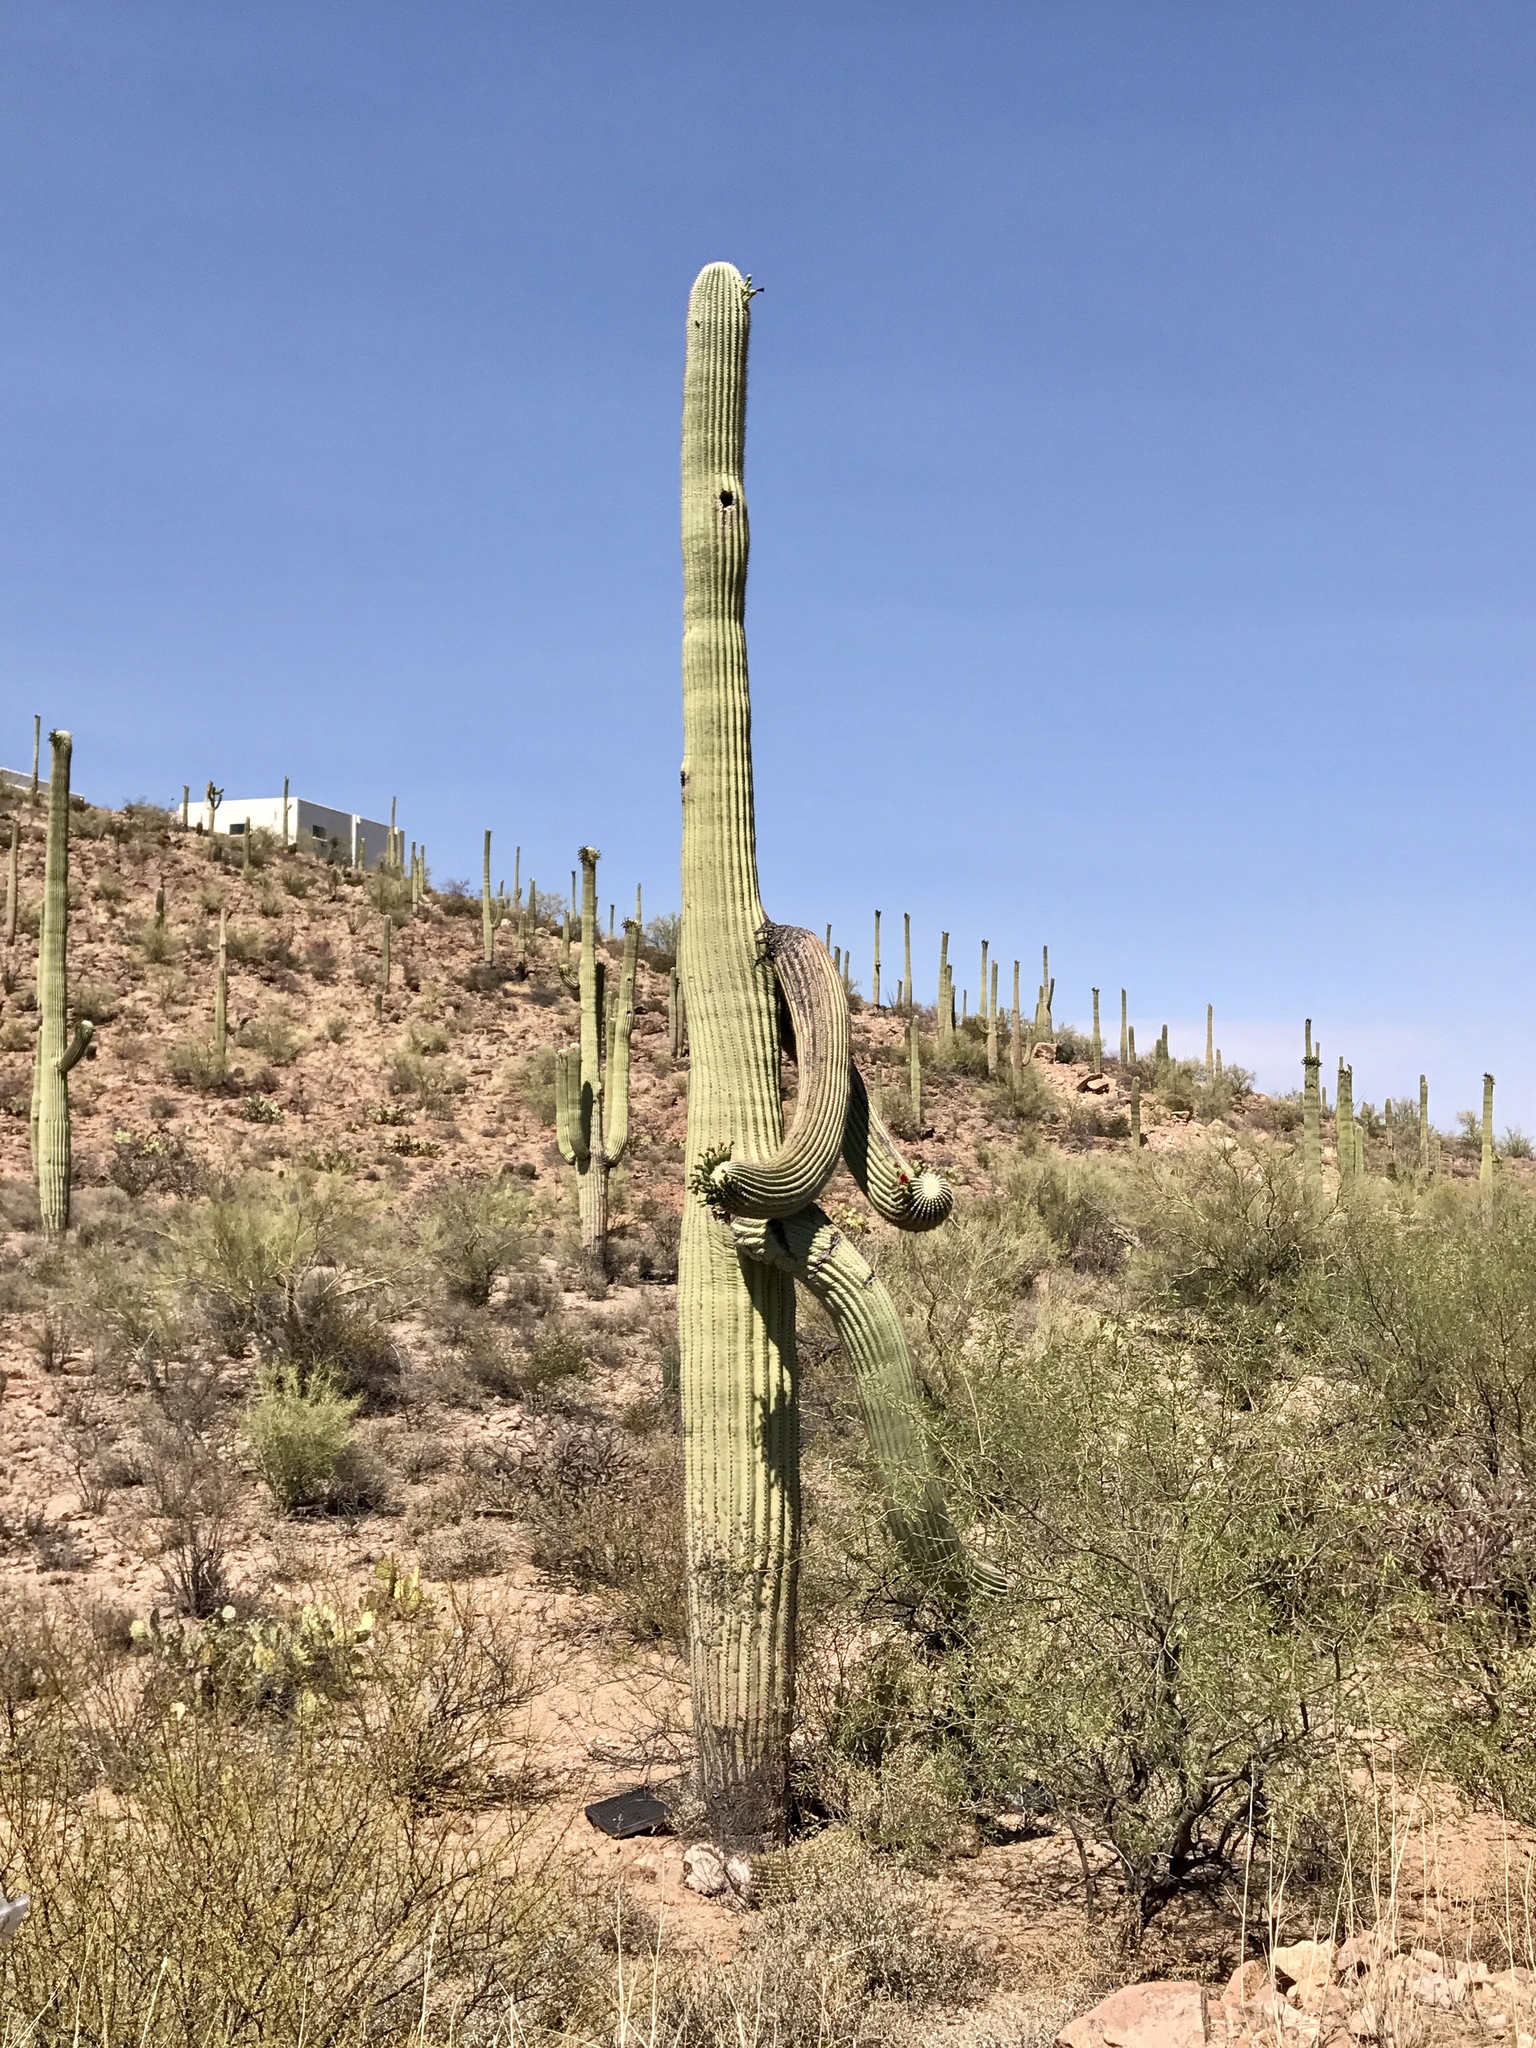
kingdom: Plantae
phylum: Tracheophyta
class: Magnoliopsida
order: Caryophyllales
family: Cactaceae
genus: Carnegiea
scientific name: Carnegiea gigantea
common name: Saguaro
